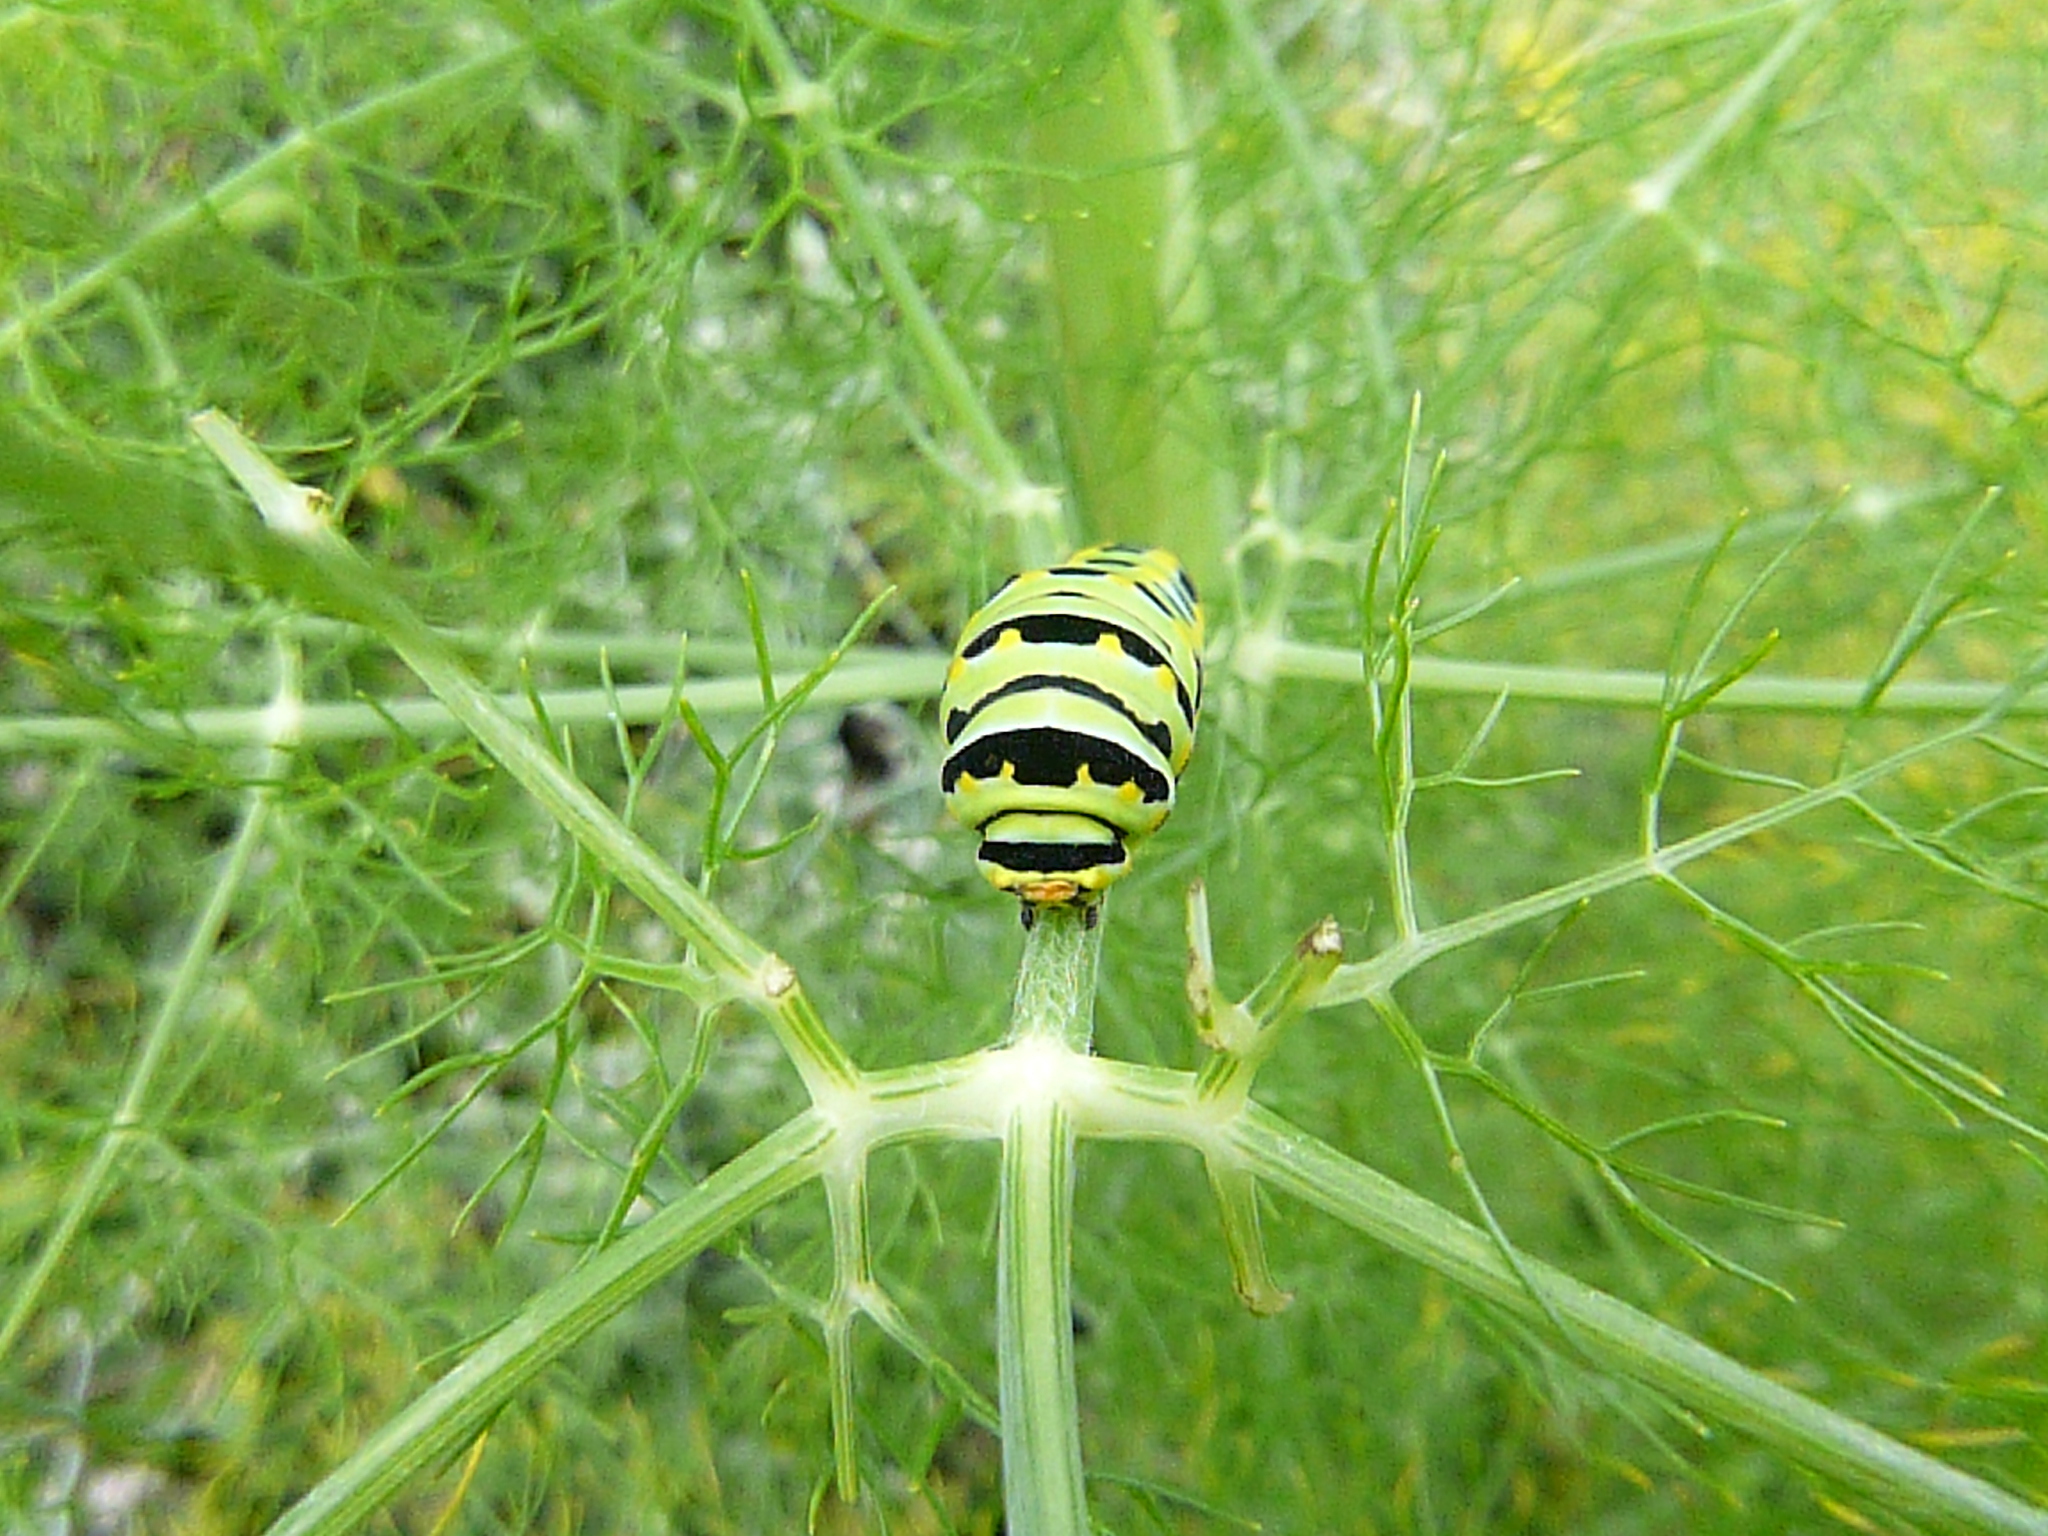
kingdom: Animalia
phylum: Arthropoda
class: Insecta
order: Lepidoptera
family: Papilionidae
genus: Papilio
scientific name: Papilio zelicaon
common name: Anise swallowtail
